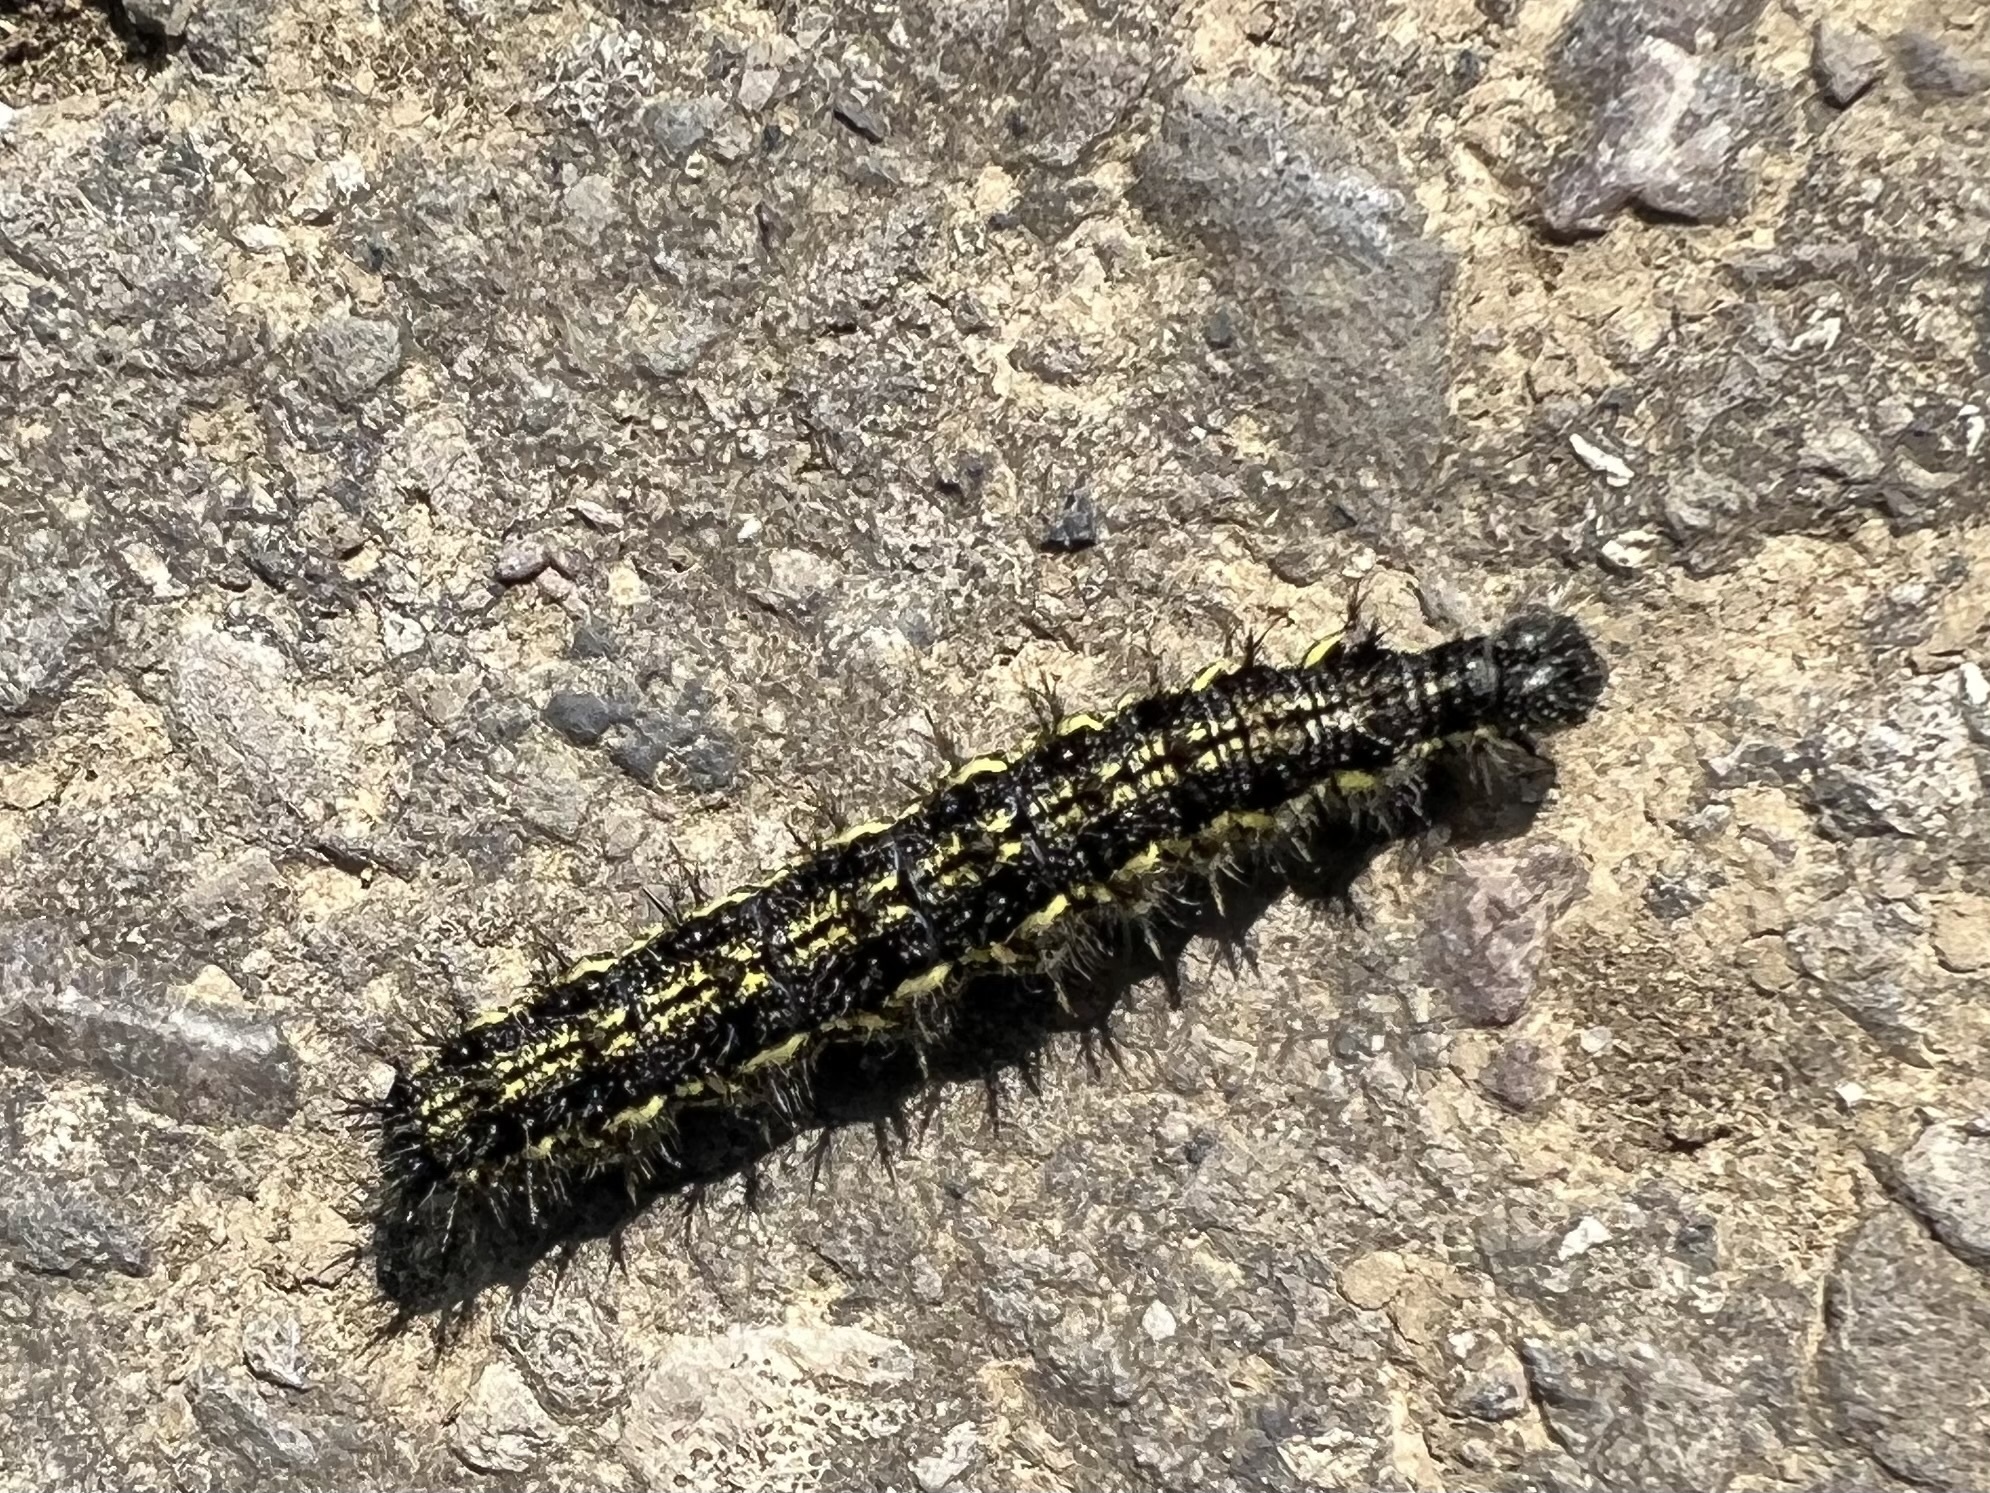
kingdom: Animalia
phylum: Arthropoda
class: Insecta
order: Lepidoptera
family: Nymphalidae
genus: Aglais
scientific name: Aglais urticae
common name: Small tortoiseshell
